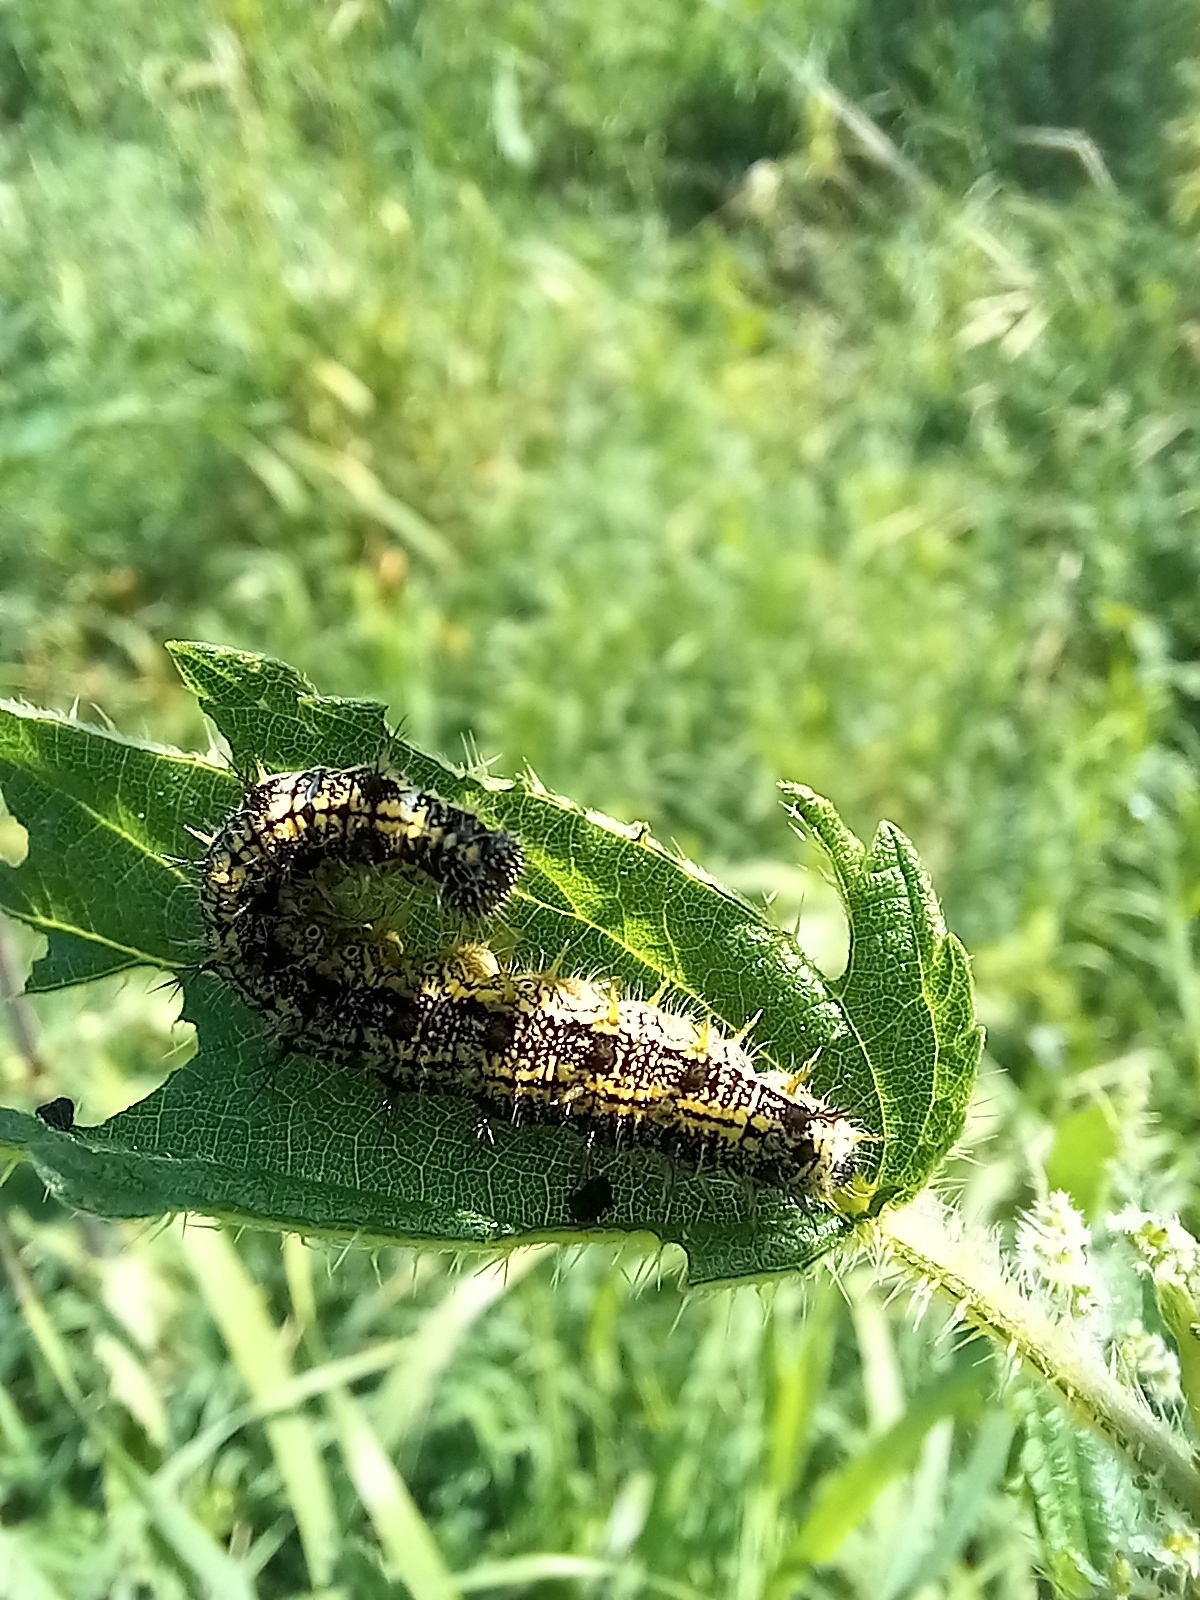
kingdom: Animalia
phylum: Arthropoda
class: Insecta
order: Lepidoptera
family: Nymphalidae
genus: Aglais
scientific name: Aglais urticae
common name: Small tortoiseshell
